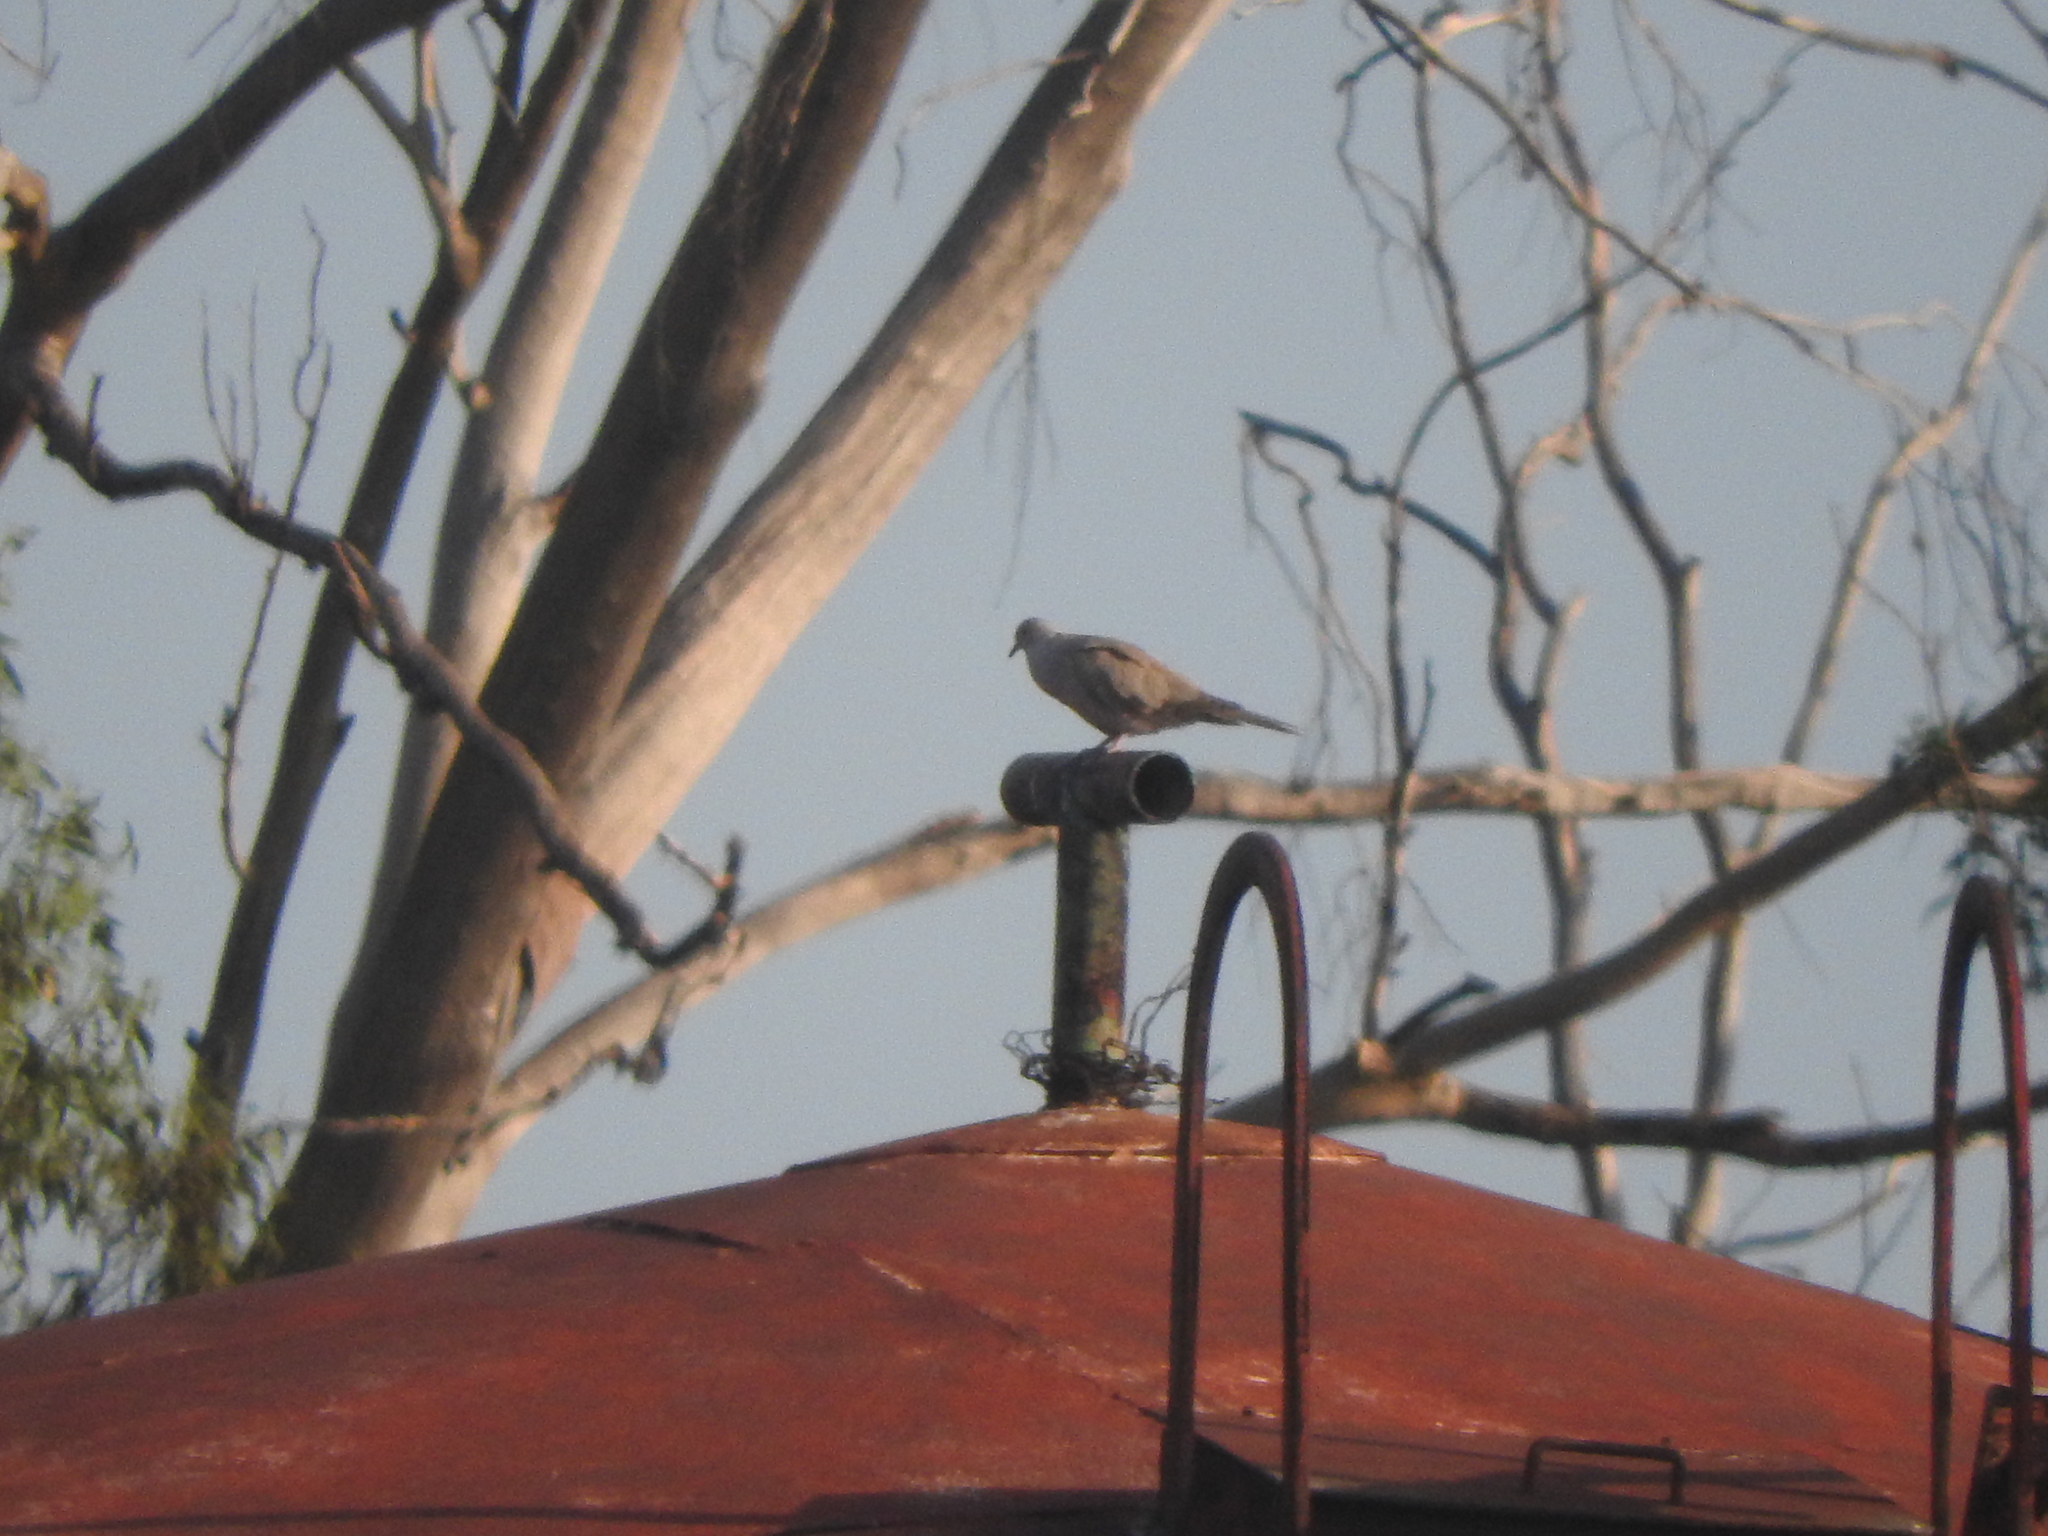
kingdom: Animalia
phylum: Chordata
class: Aves
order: Columbiformes
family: Columbidae
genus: Streptopelia
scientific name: Streptopelia decaocto
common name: Eurasian collared dove
